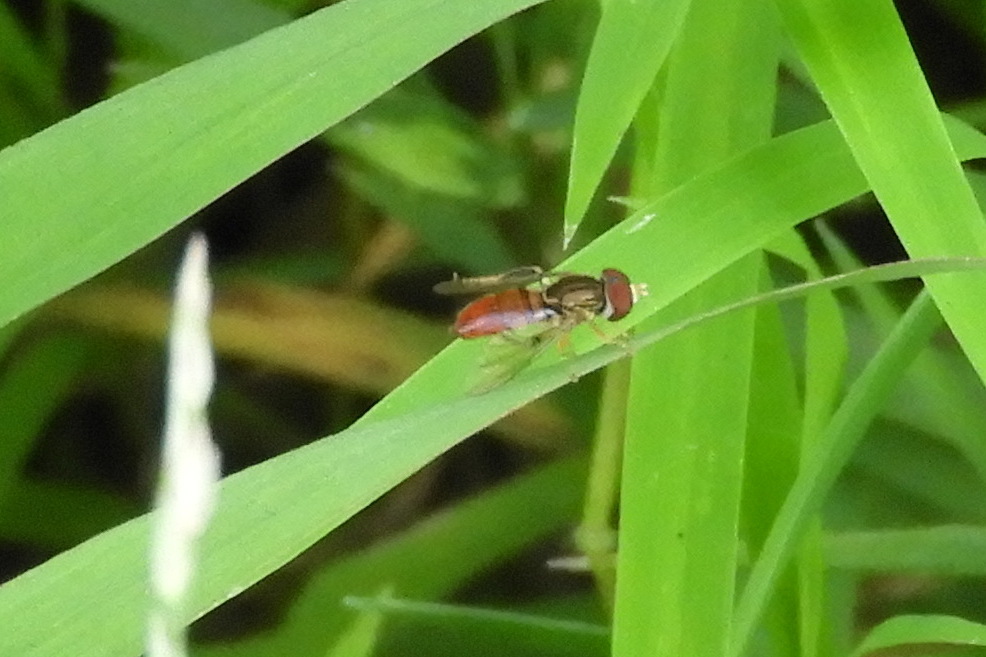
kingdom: Animalia
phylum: Arthropoda
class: Insecta
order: Diptera
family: Syrphidae
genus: Toxomerus
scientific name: Toxomerus boscii
